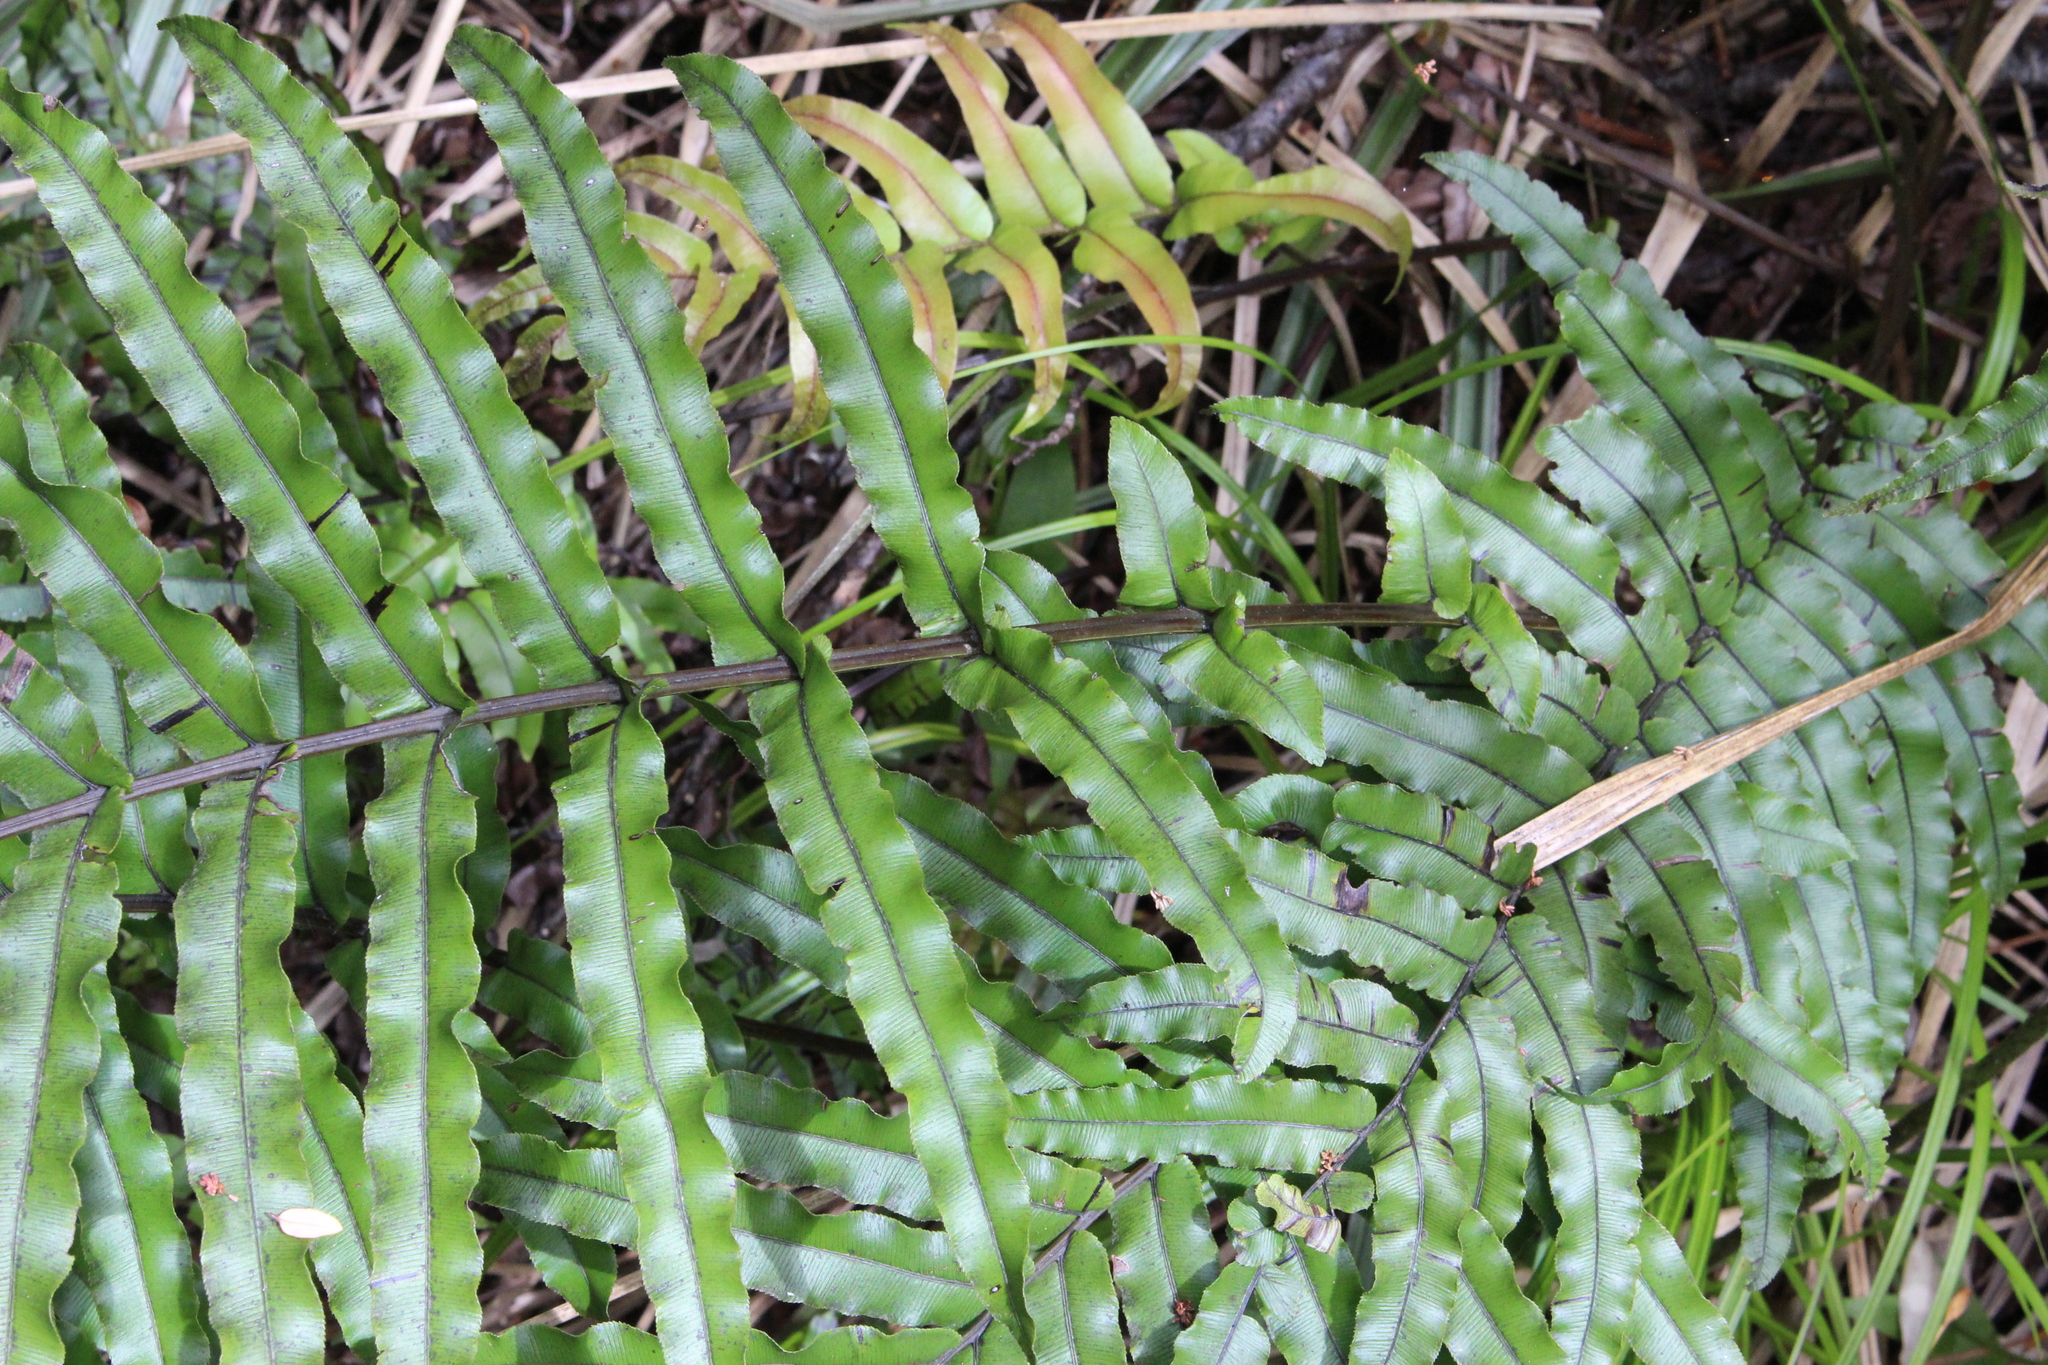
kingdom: Plantae
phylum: Tracheophyta
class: Polypodiopsida
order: Polypodiales
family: Blechnaceae
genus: Parablechnum
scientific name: Parablechnum novae-zelandiae
